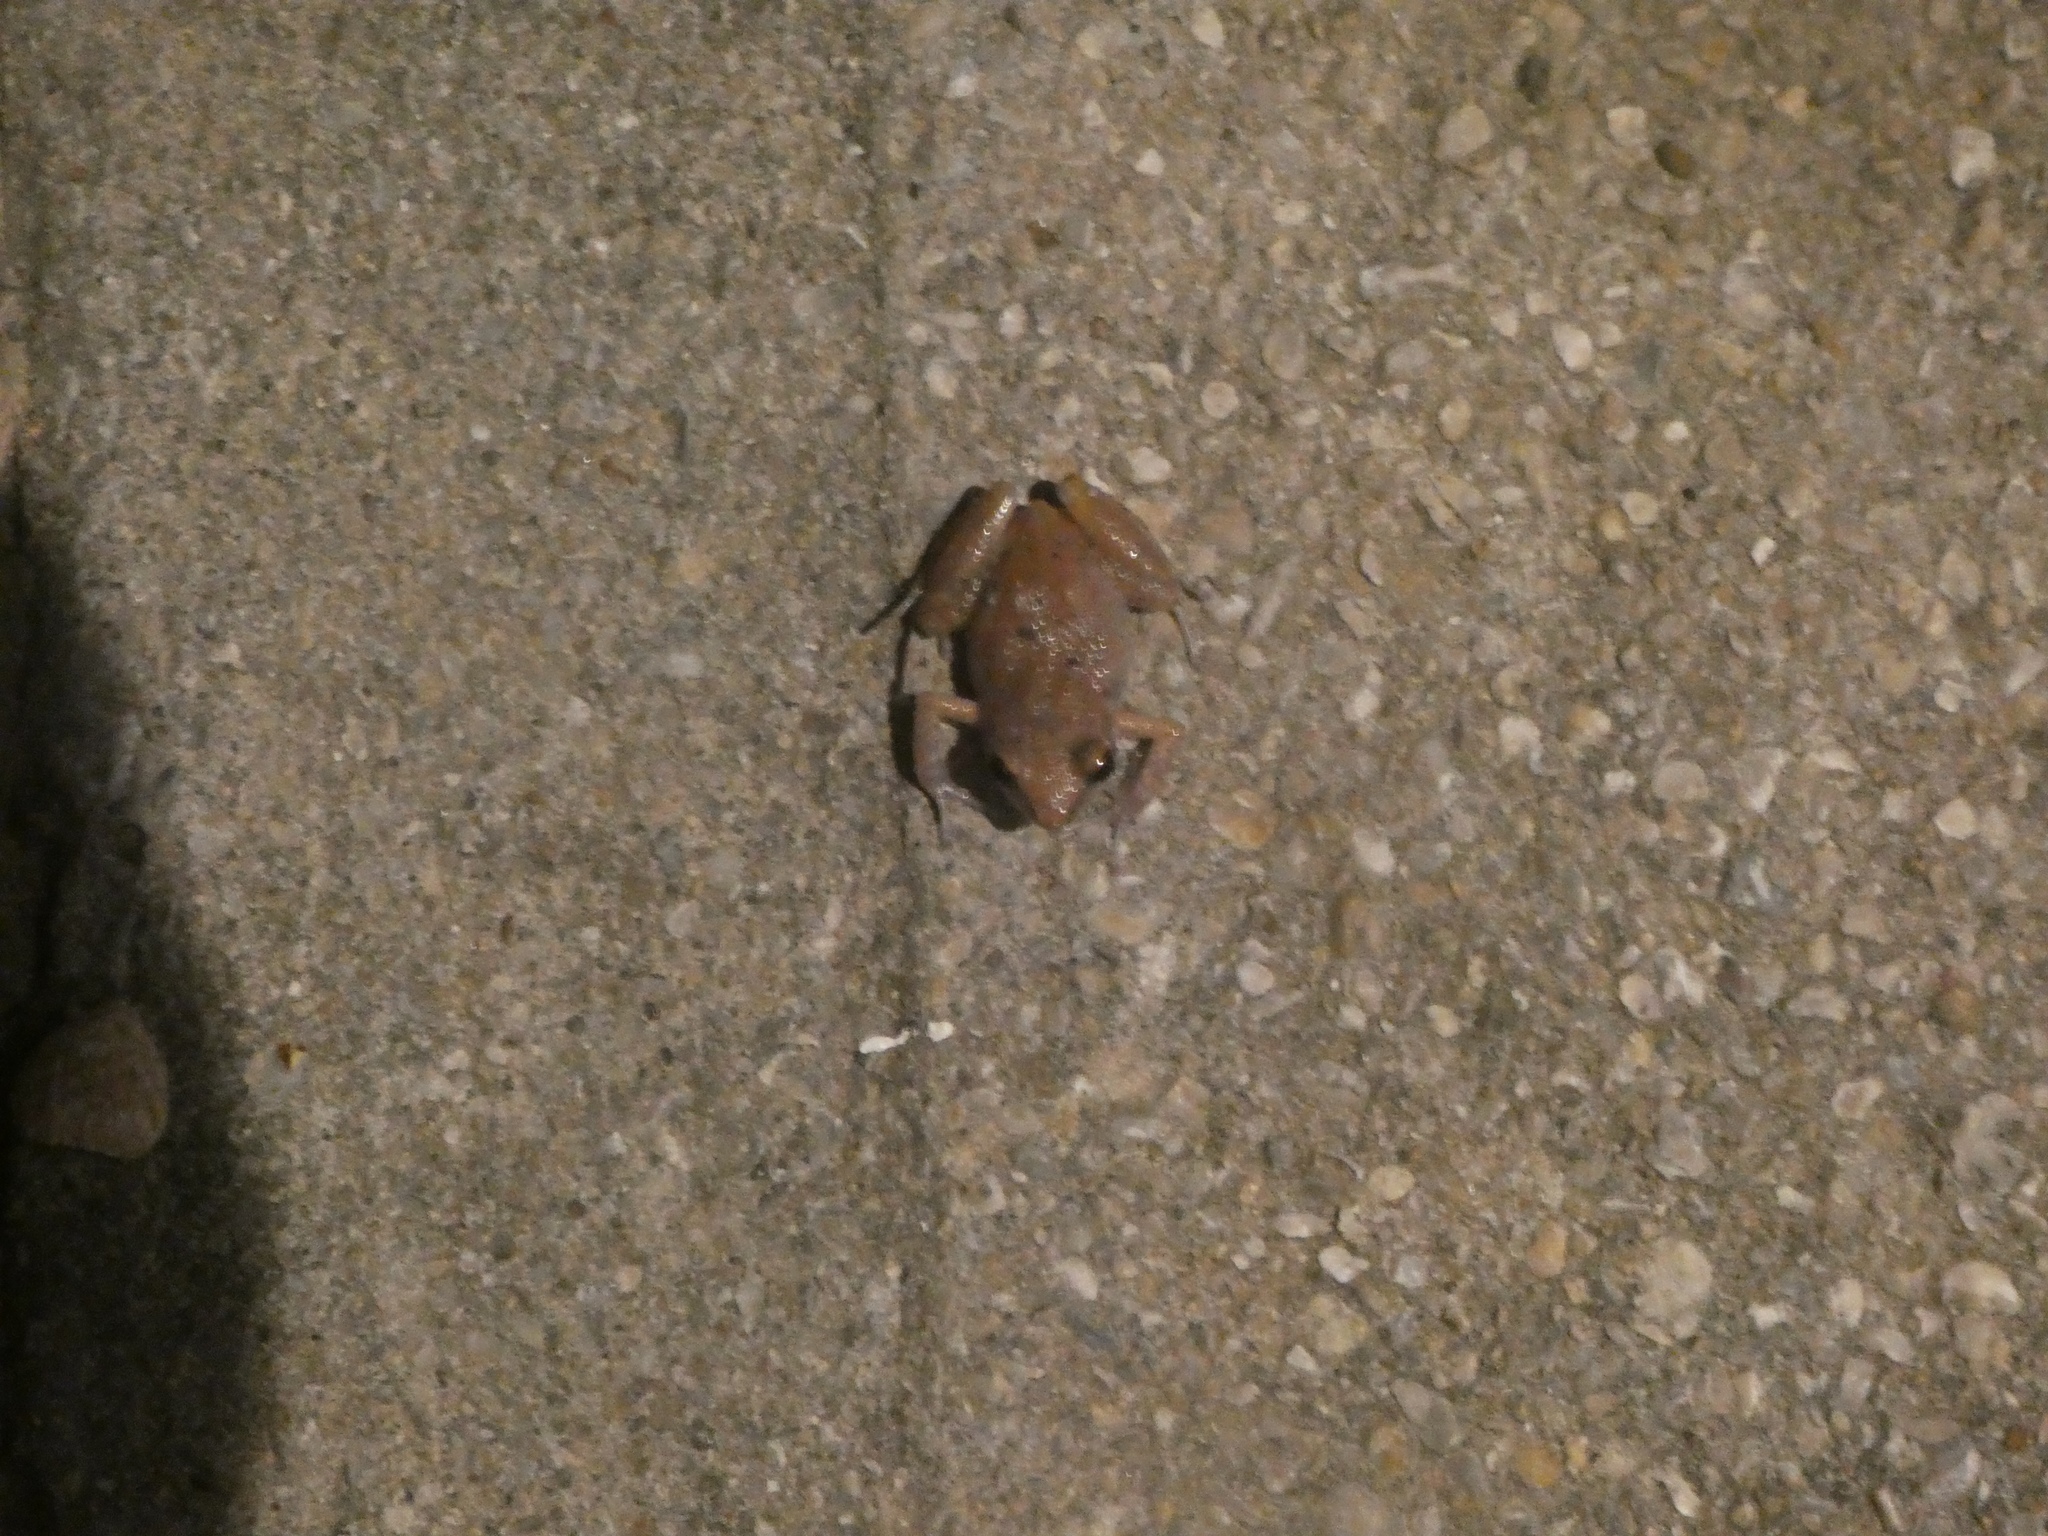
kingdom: Animalia
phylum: Chordata
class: Amphibia
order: Anura
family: Eleutherodactylidae
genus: Eleutherodactylus
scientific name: Eleutherodactylus campi
